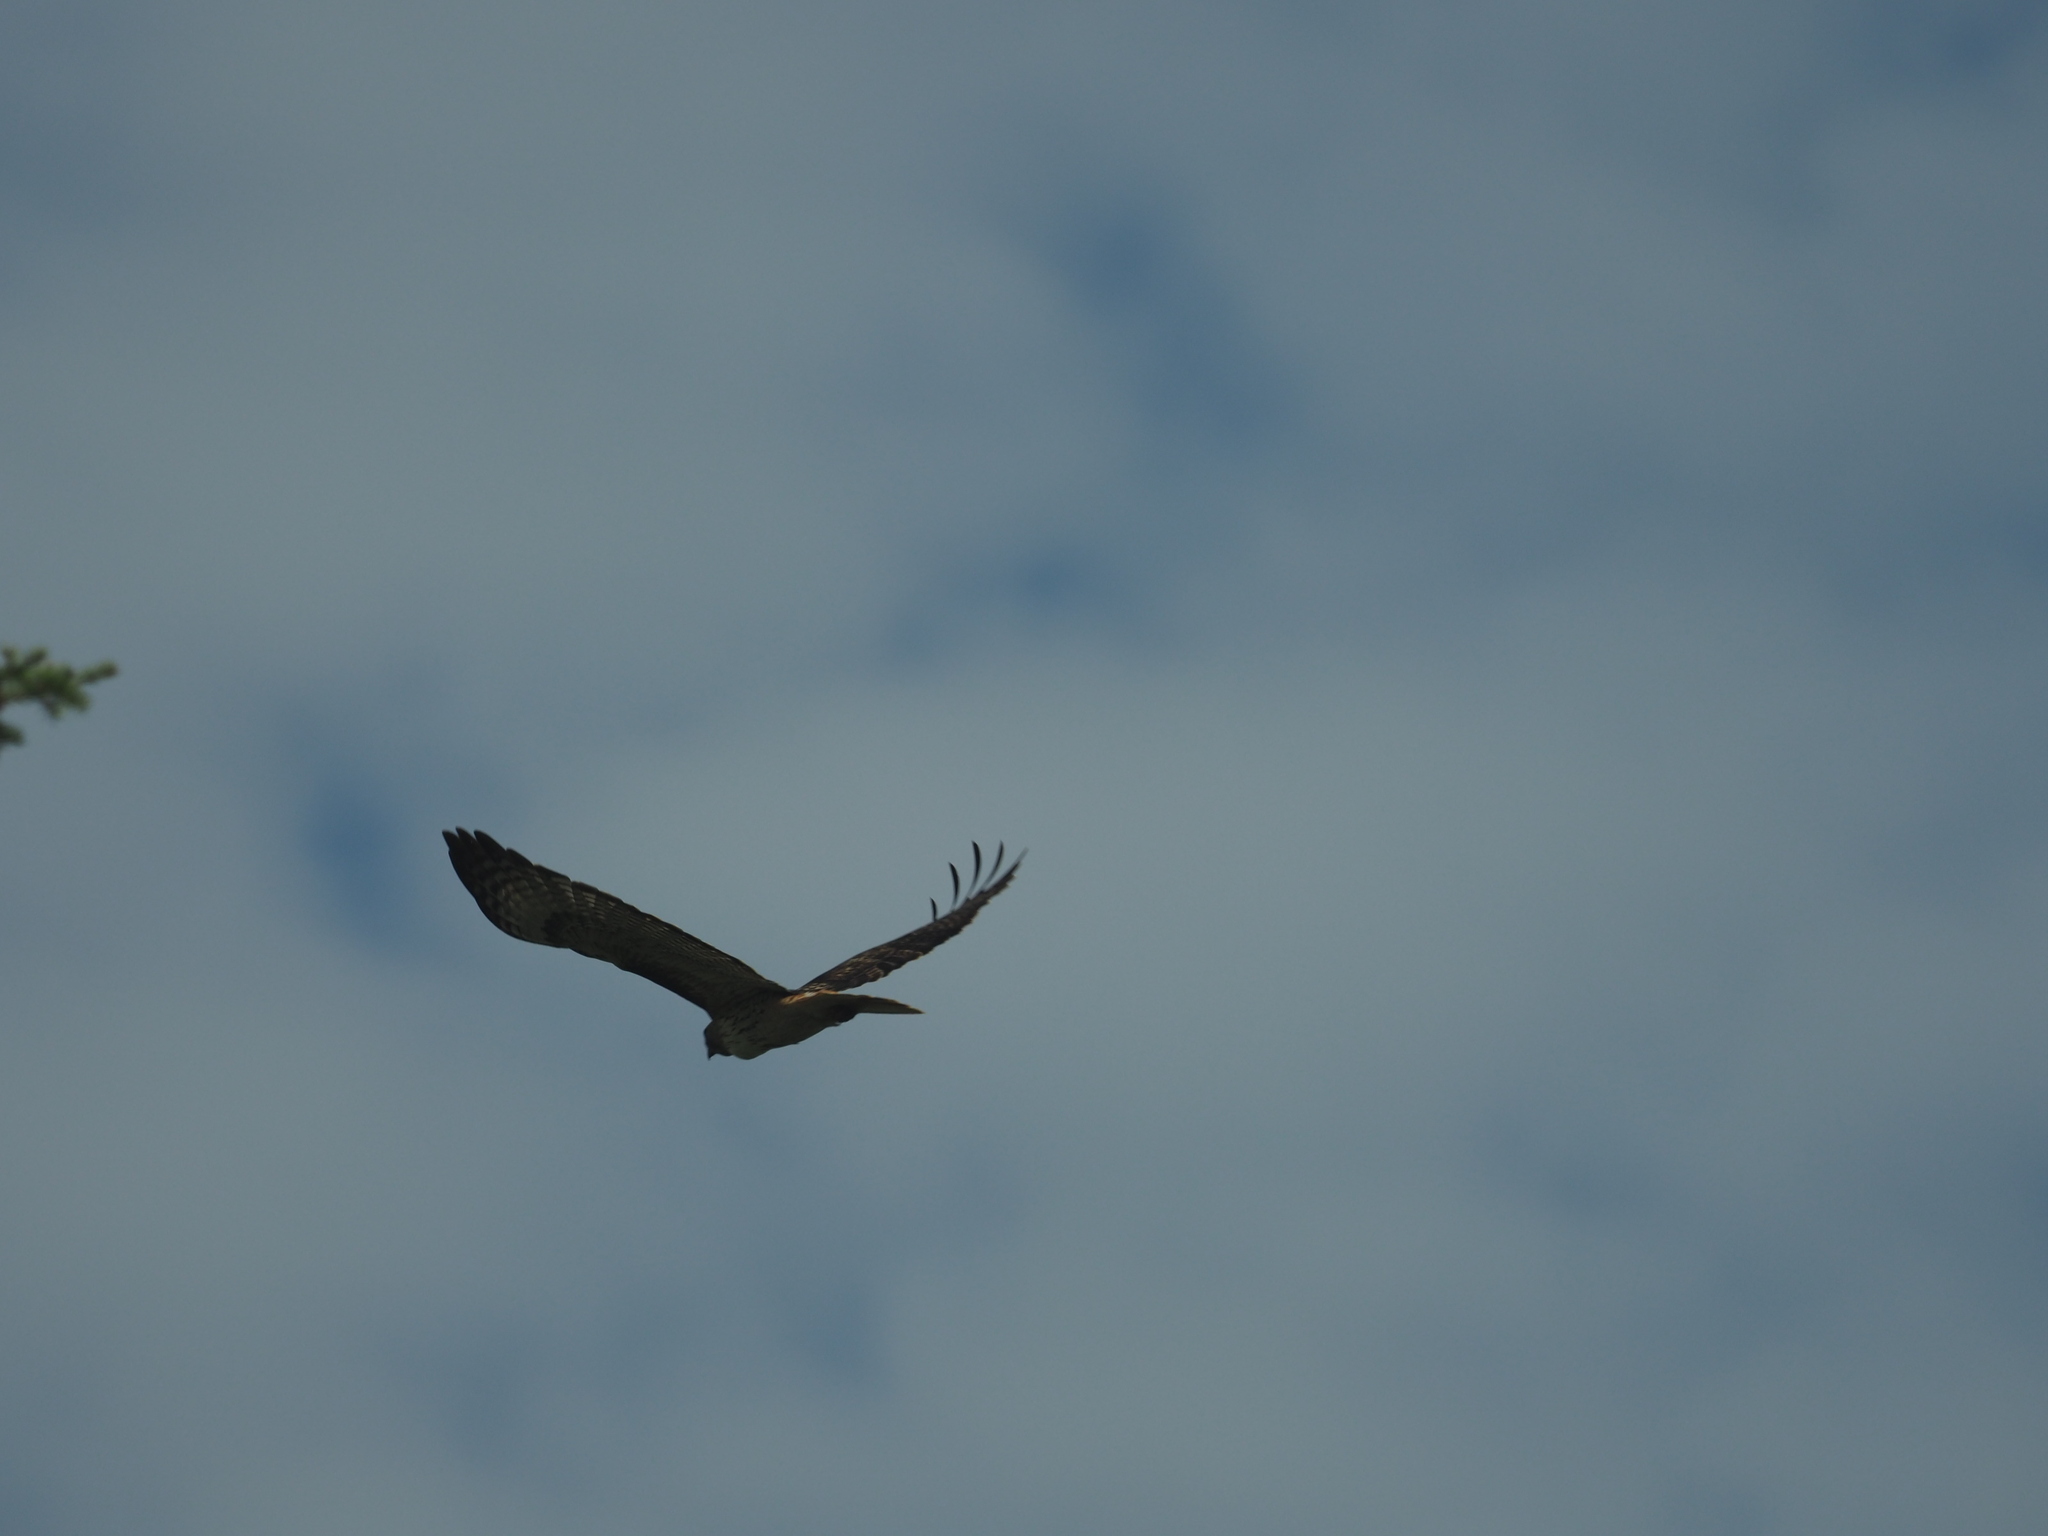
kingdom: Animalia
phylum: Chordata
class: Aves
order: Accipitriformes
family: Accipitridae
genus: Buteo
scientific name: Buteo jamaicensis
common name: Red-tailed hawk
